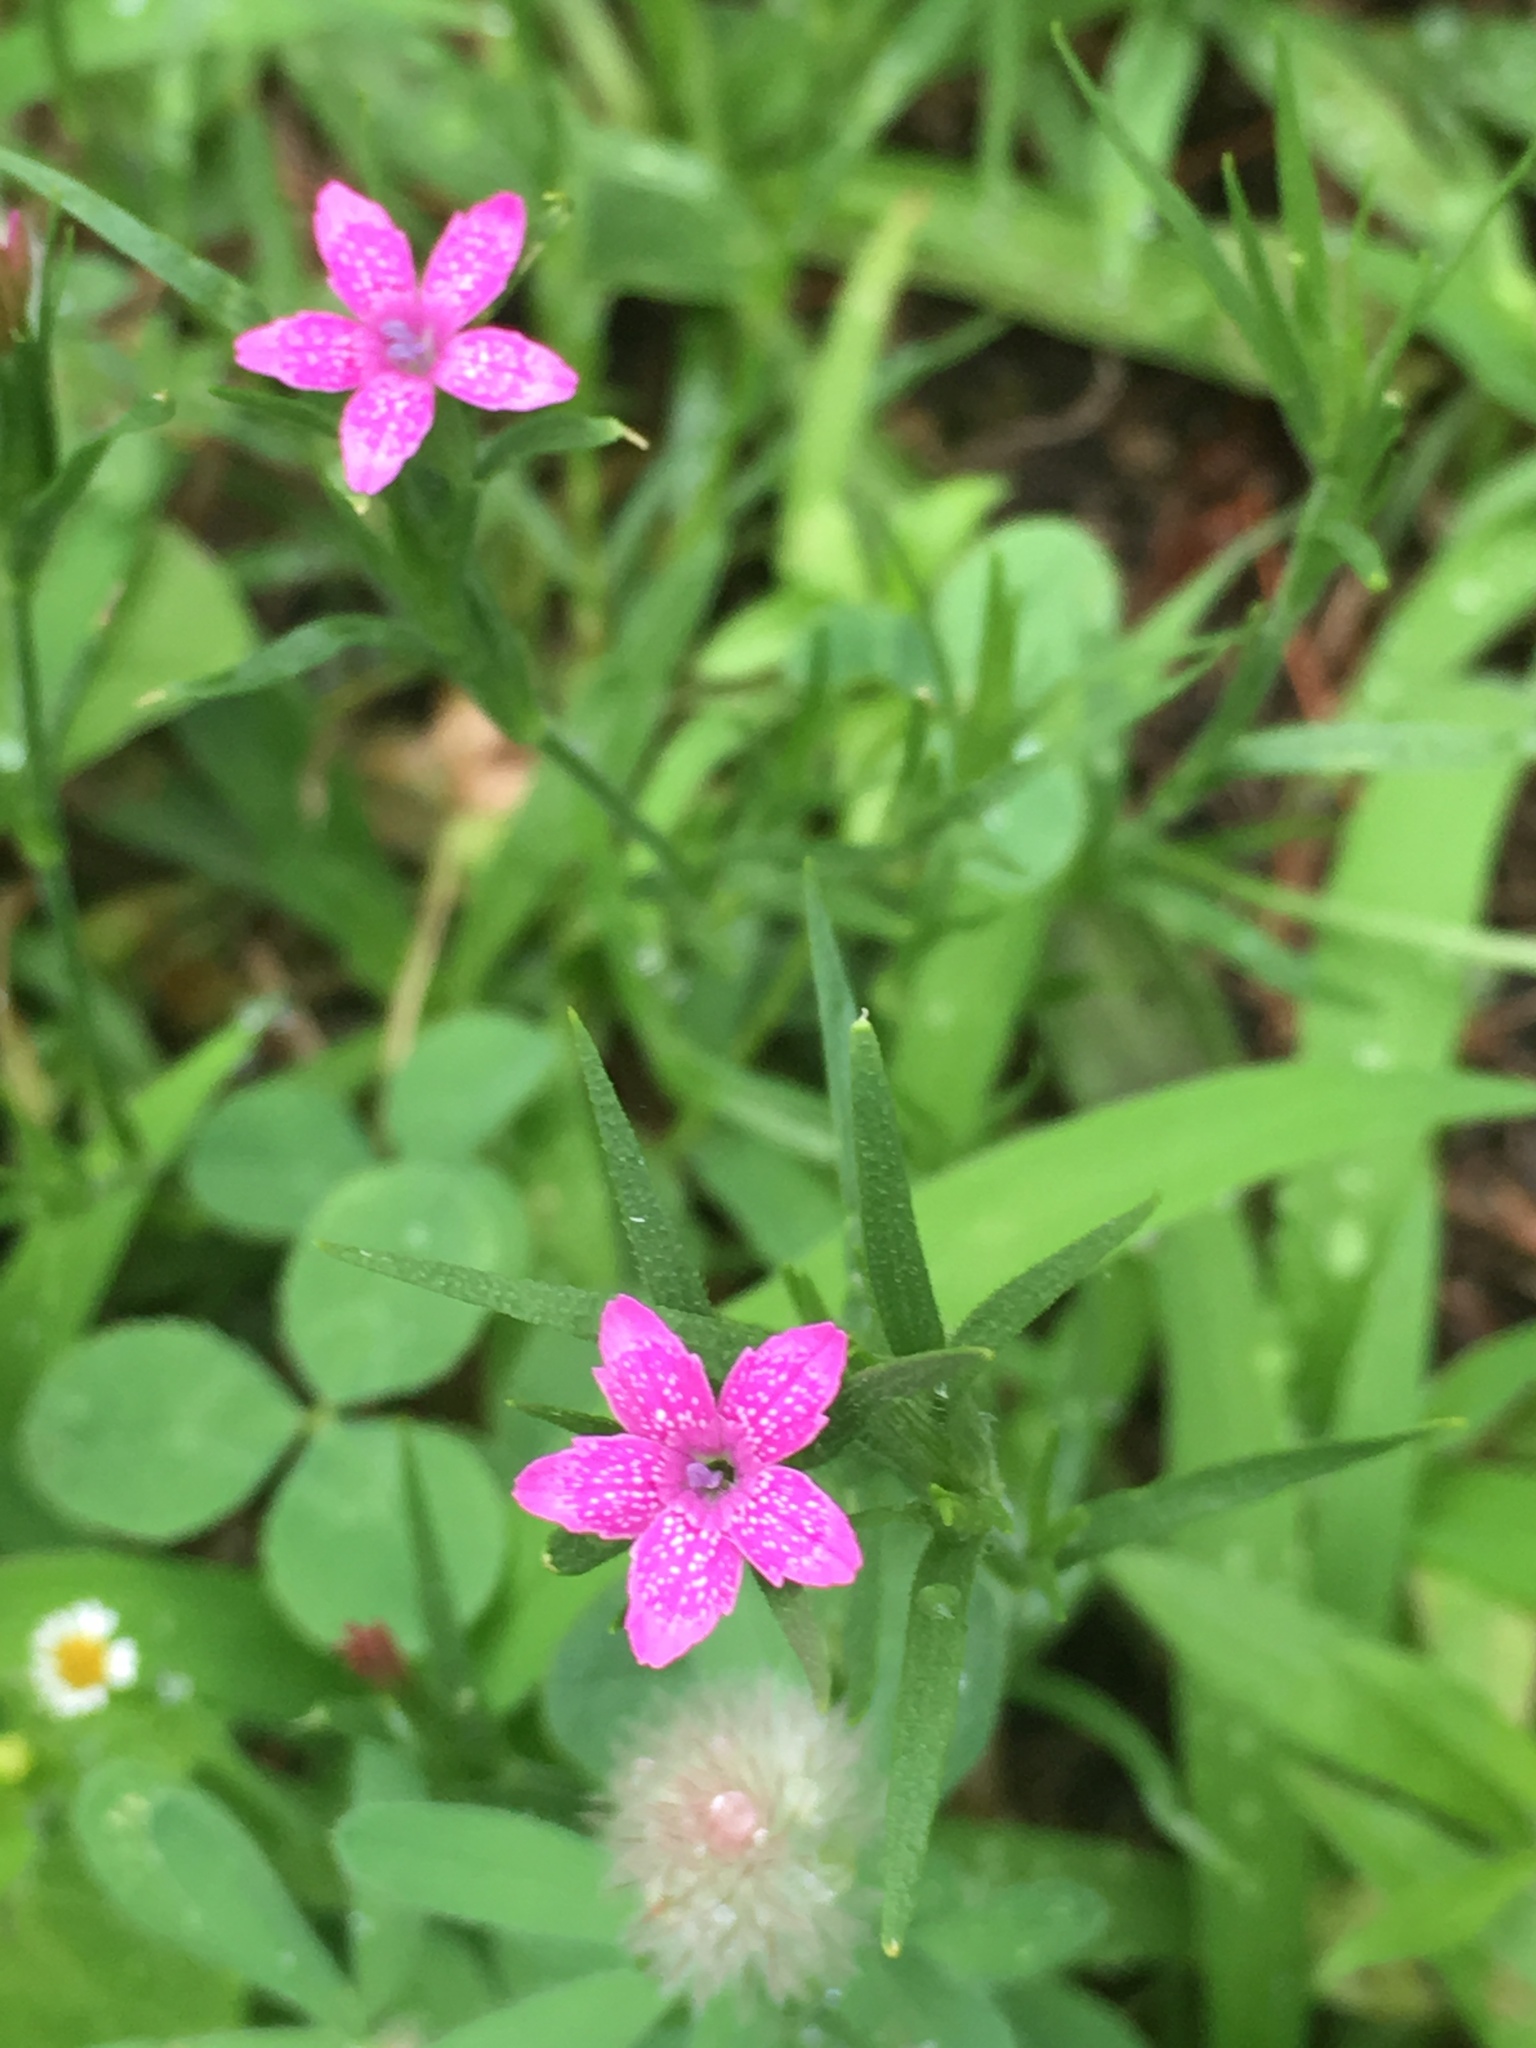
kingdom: Plantae
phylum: Tracheophyta
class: Magnoliopsida
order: Caryophyllales
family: Caryophyllaceae
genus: Dianthus
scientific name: Dianthus armeria
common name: Deptford pink
